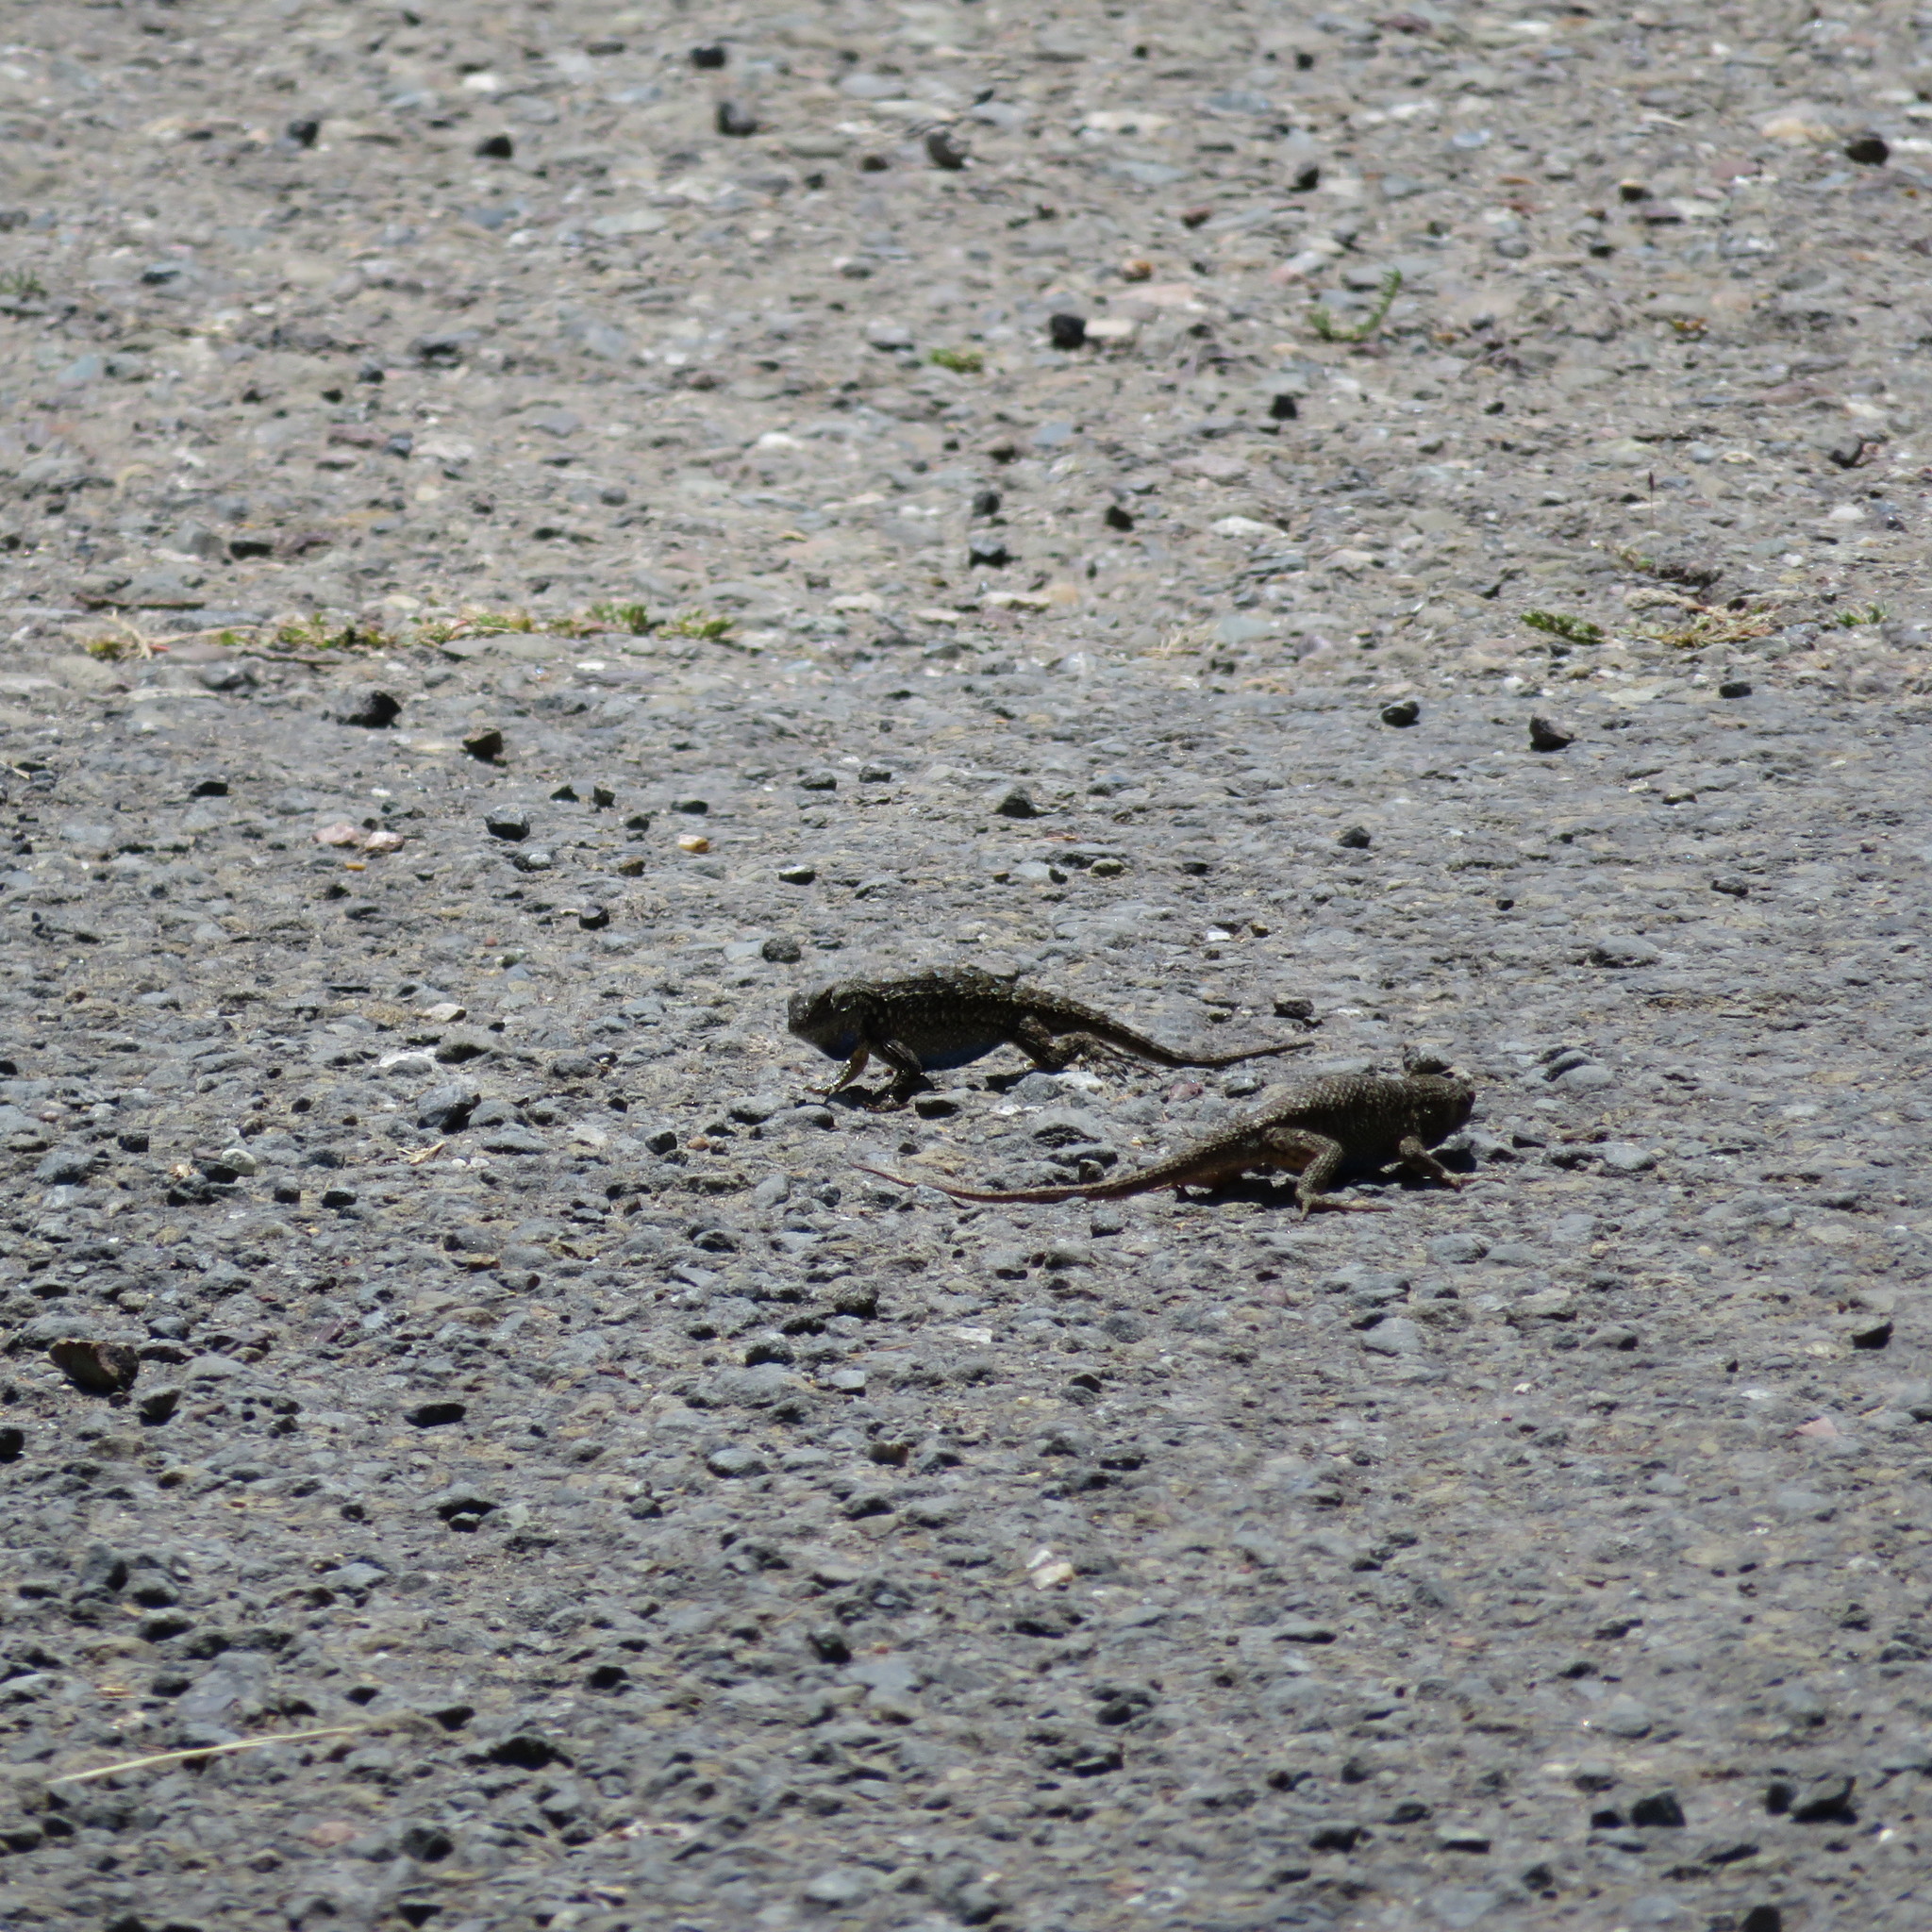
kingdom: Animalia
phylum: Chordata
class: Squamata
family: Phrynosomatidae
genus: Sceloporus
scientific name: Sceloporus occidentalis
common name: Western fence lizard
